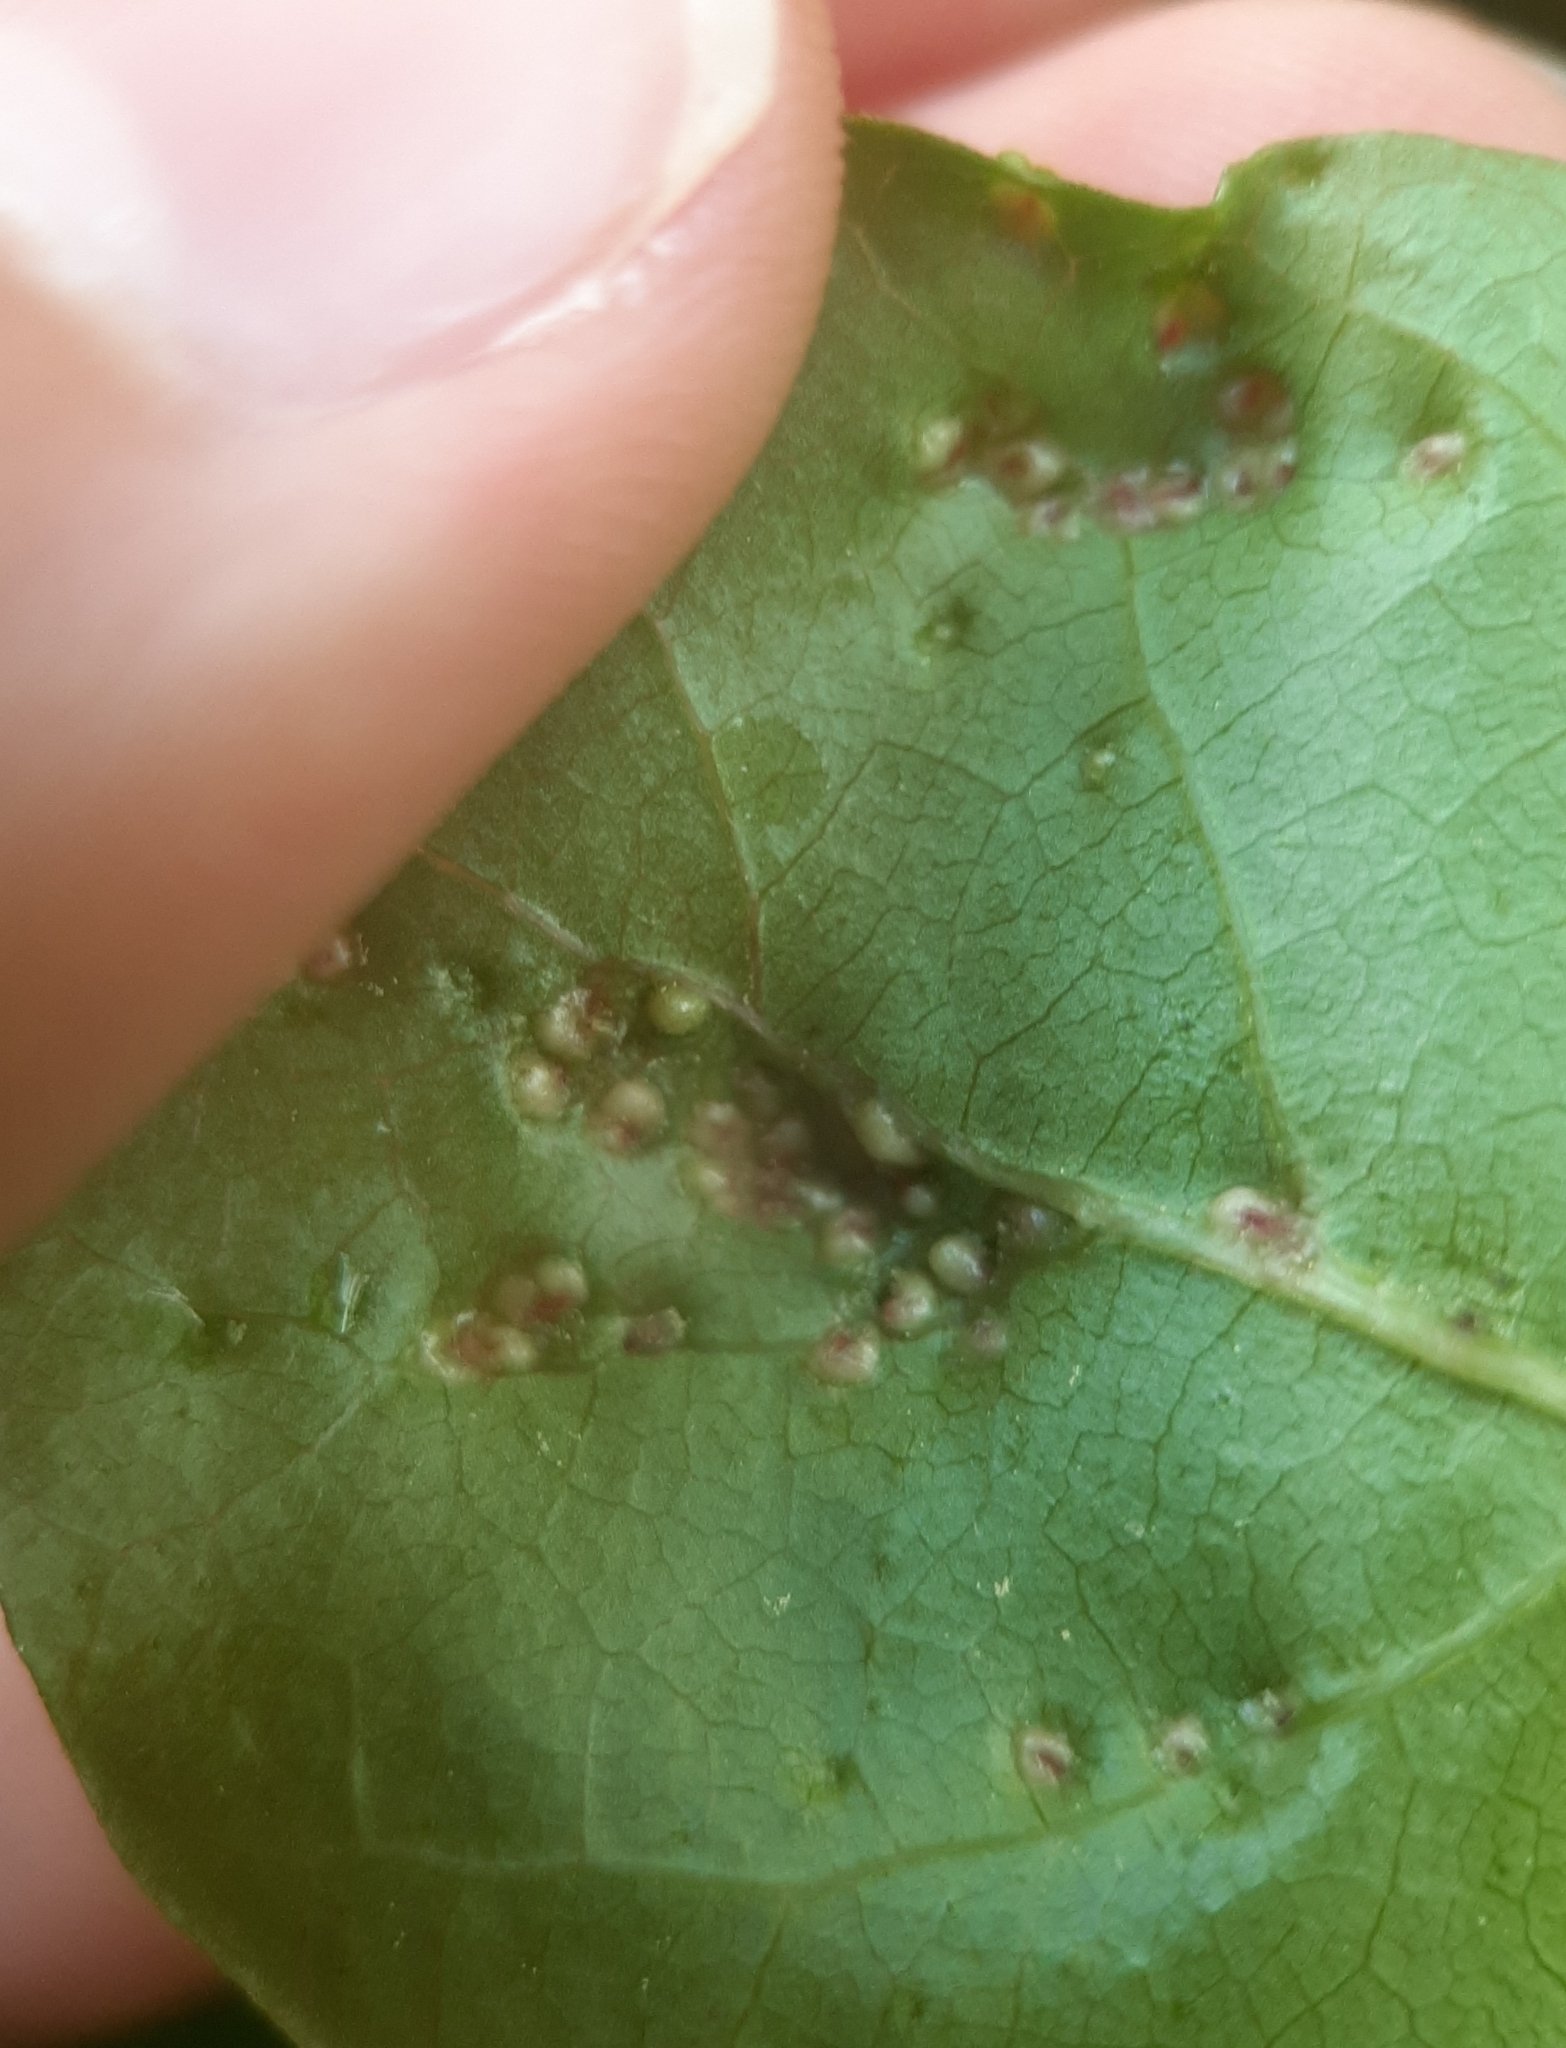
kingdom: Animalia
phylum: Arthropoda
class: Arachnida
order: Trombidiformes
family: Eriophyidae
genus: Aceria
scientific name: Aceria
